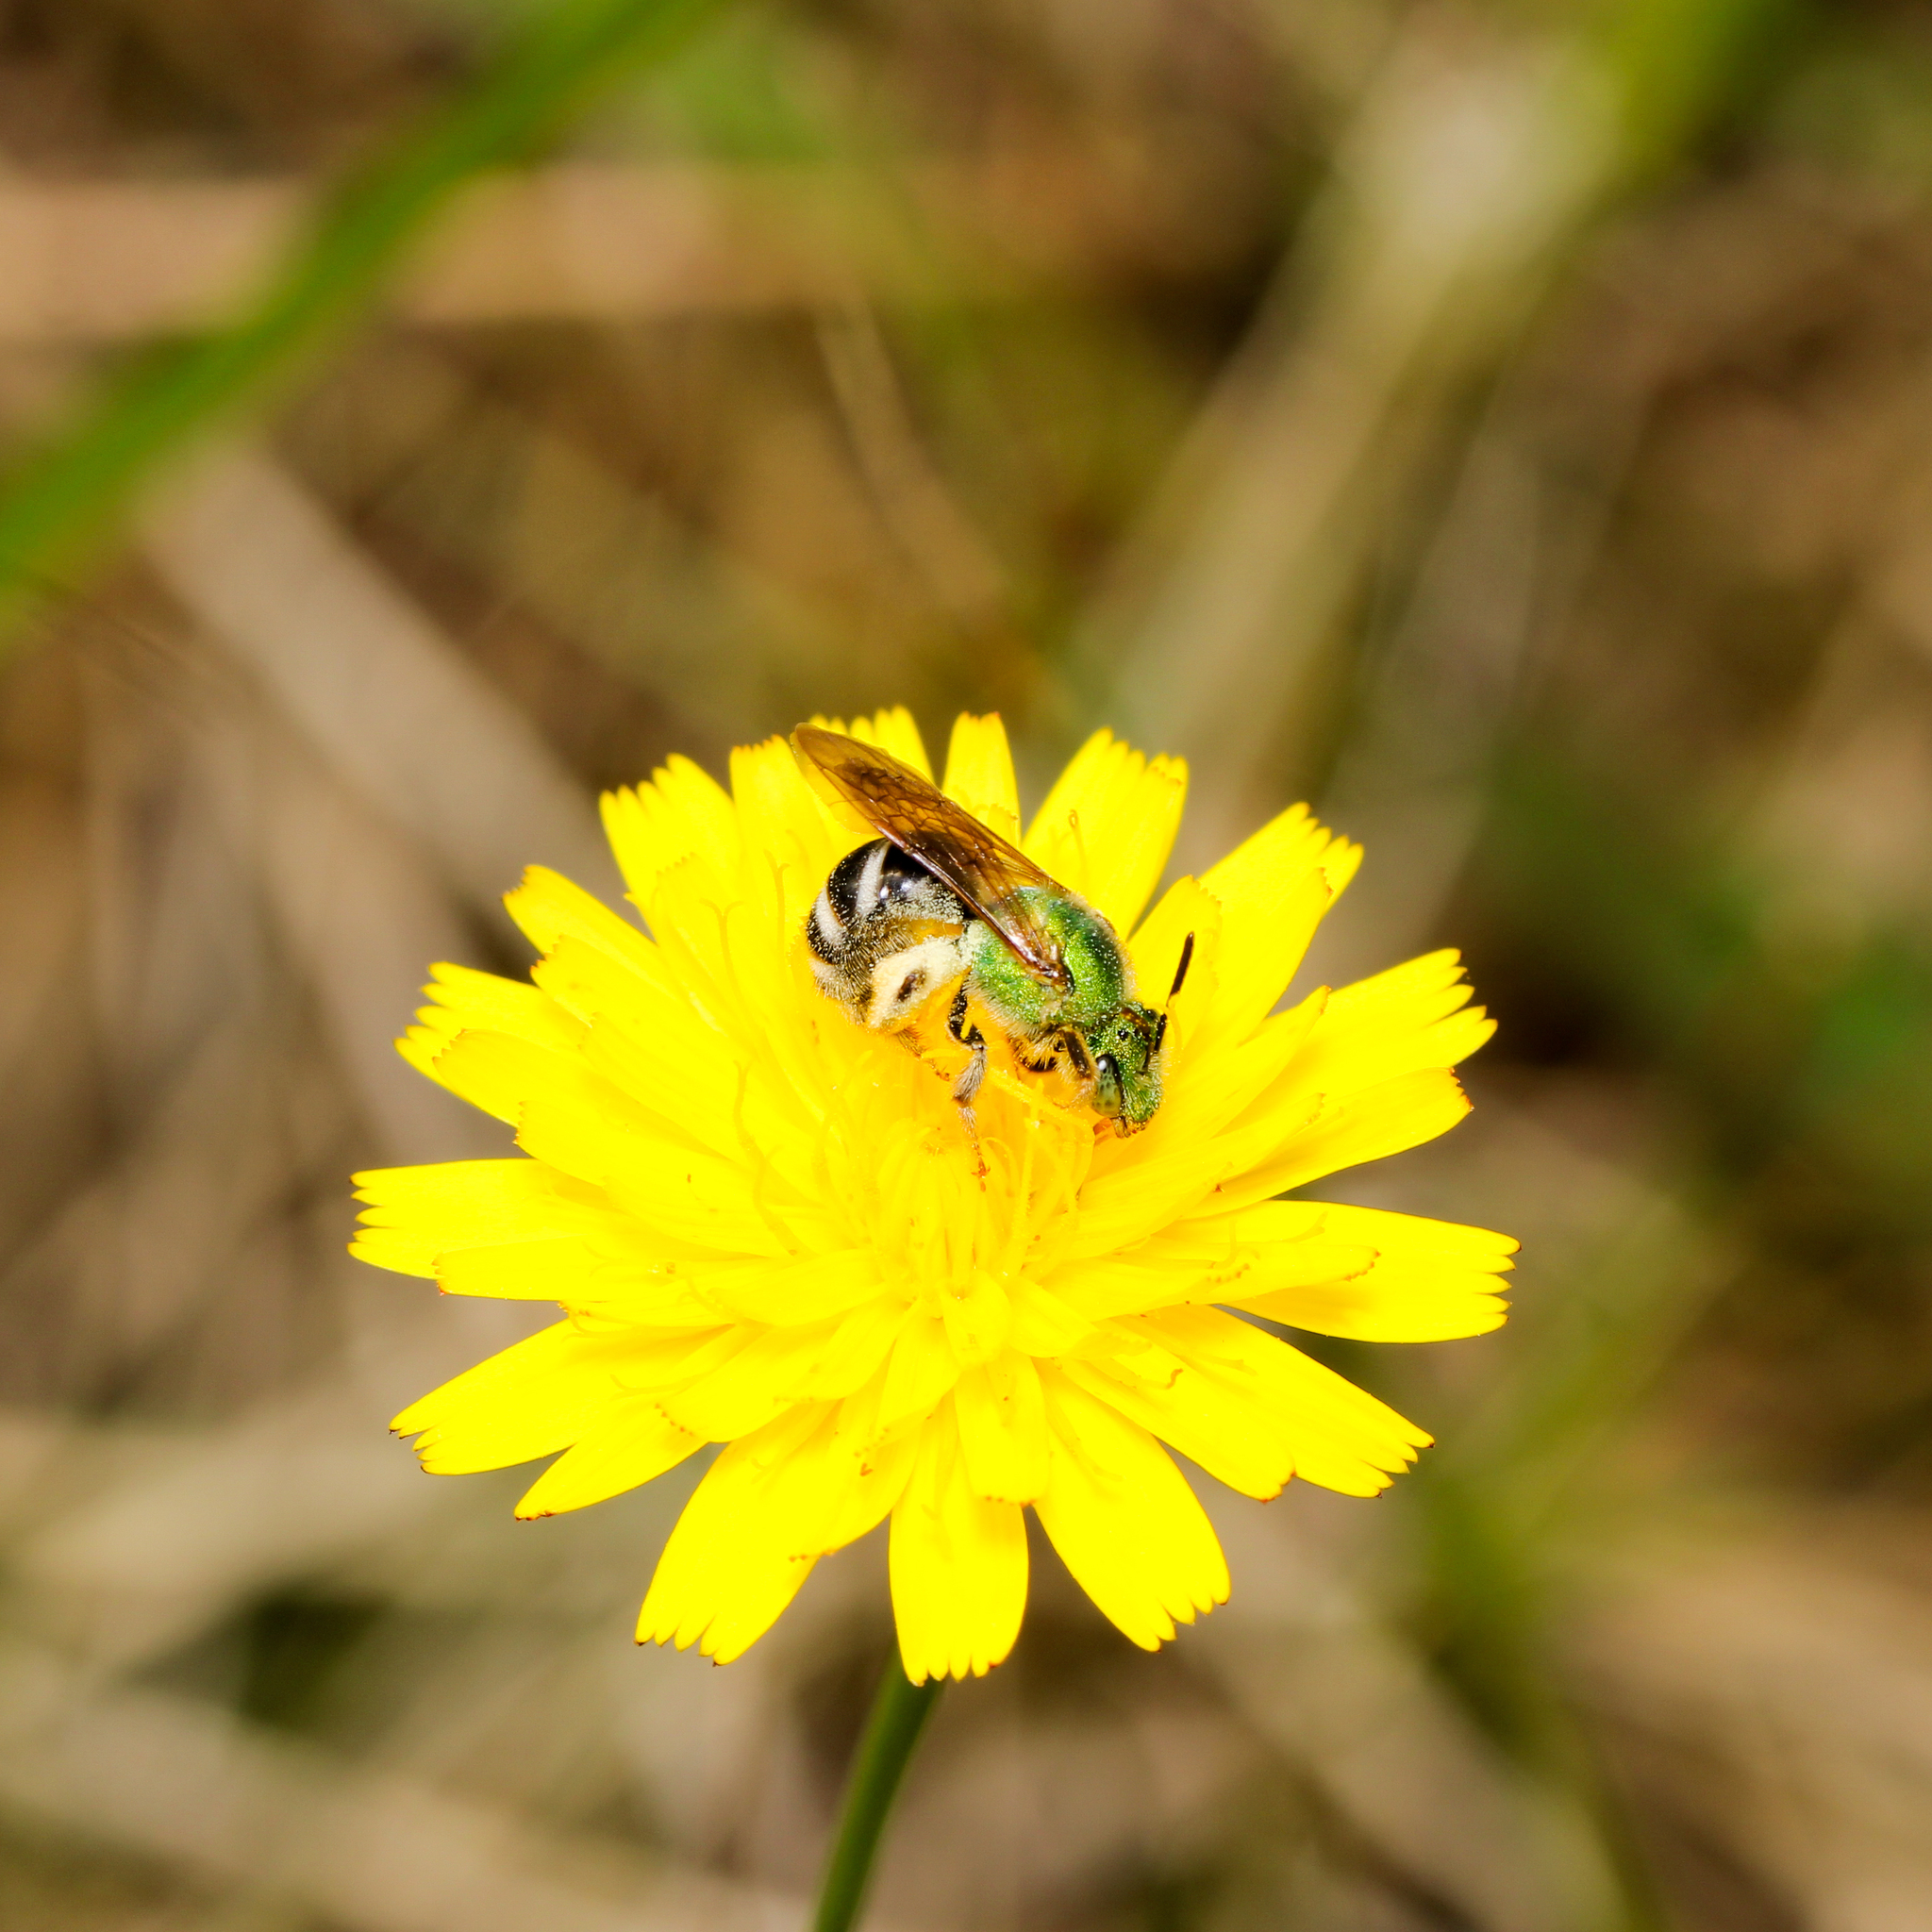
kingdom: Animalia
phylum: Arthropoda
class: Insecta
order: Hymenoptera
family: Halictidae
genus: Agapostemon
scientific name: Agapostemon virescens
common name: Bicolored striped sweat bee
